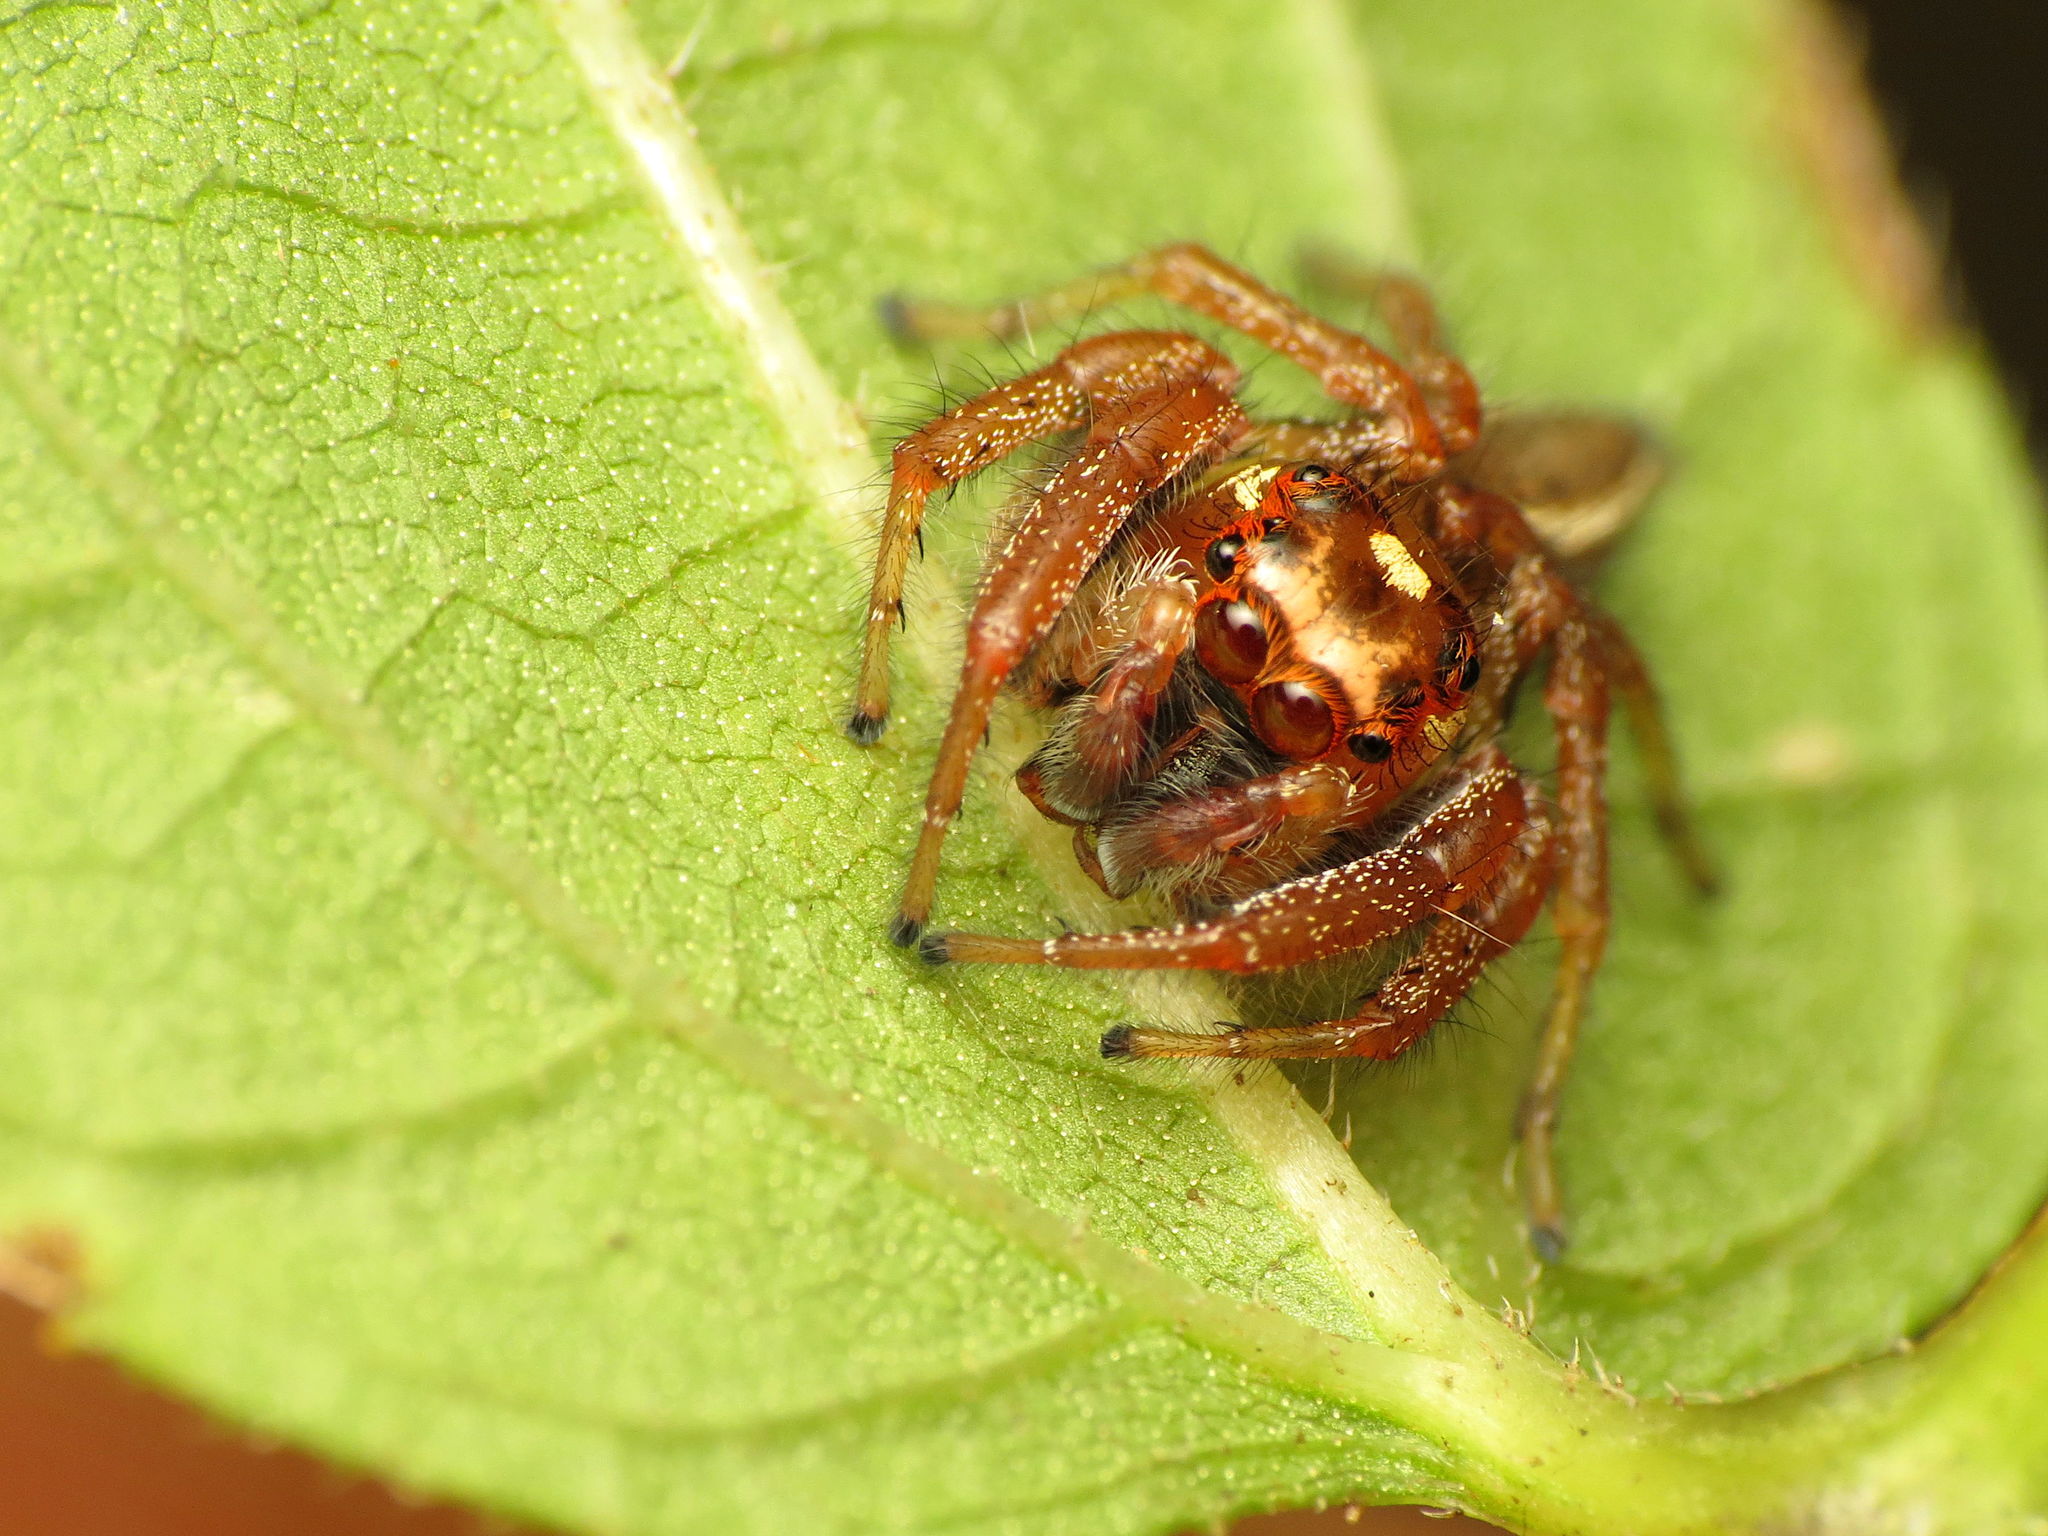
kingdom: Animalia
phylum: Arthropoda
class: Arachnida
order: Araneae
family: Salticidae
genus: Colonus
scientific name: Colonus sylvanus
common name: Jumping spiders
